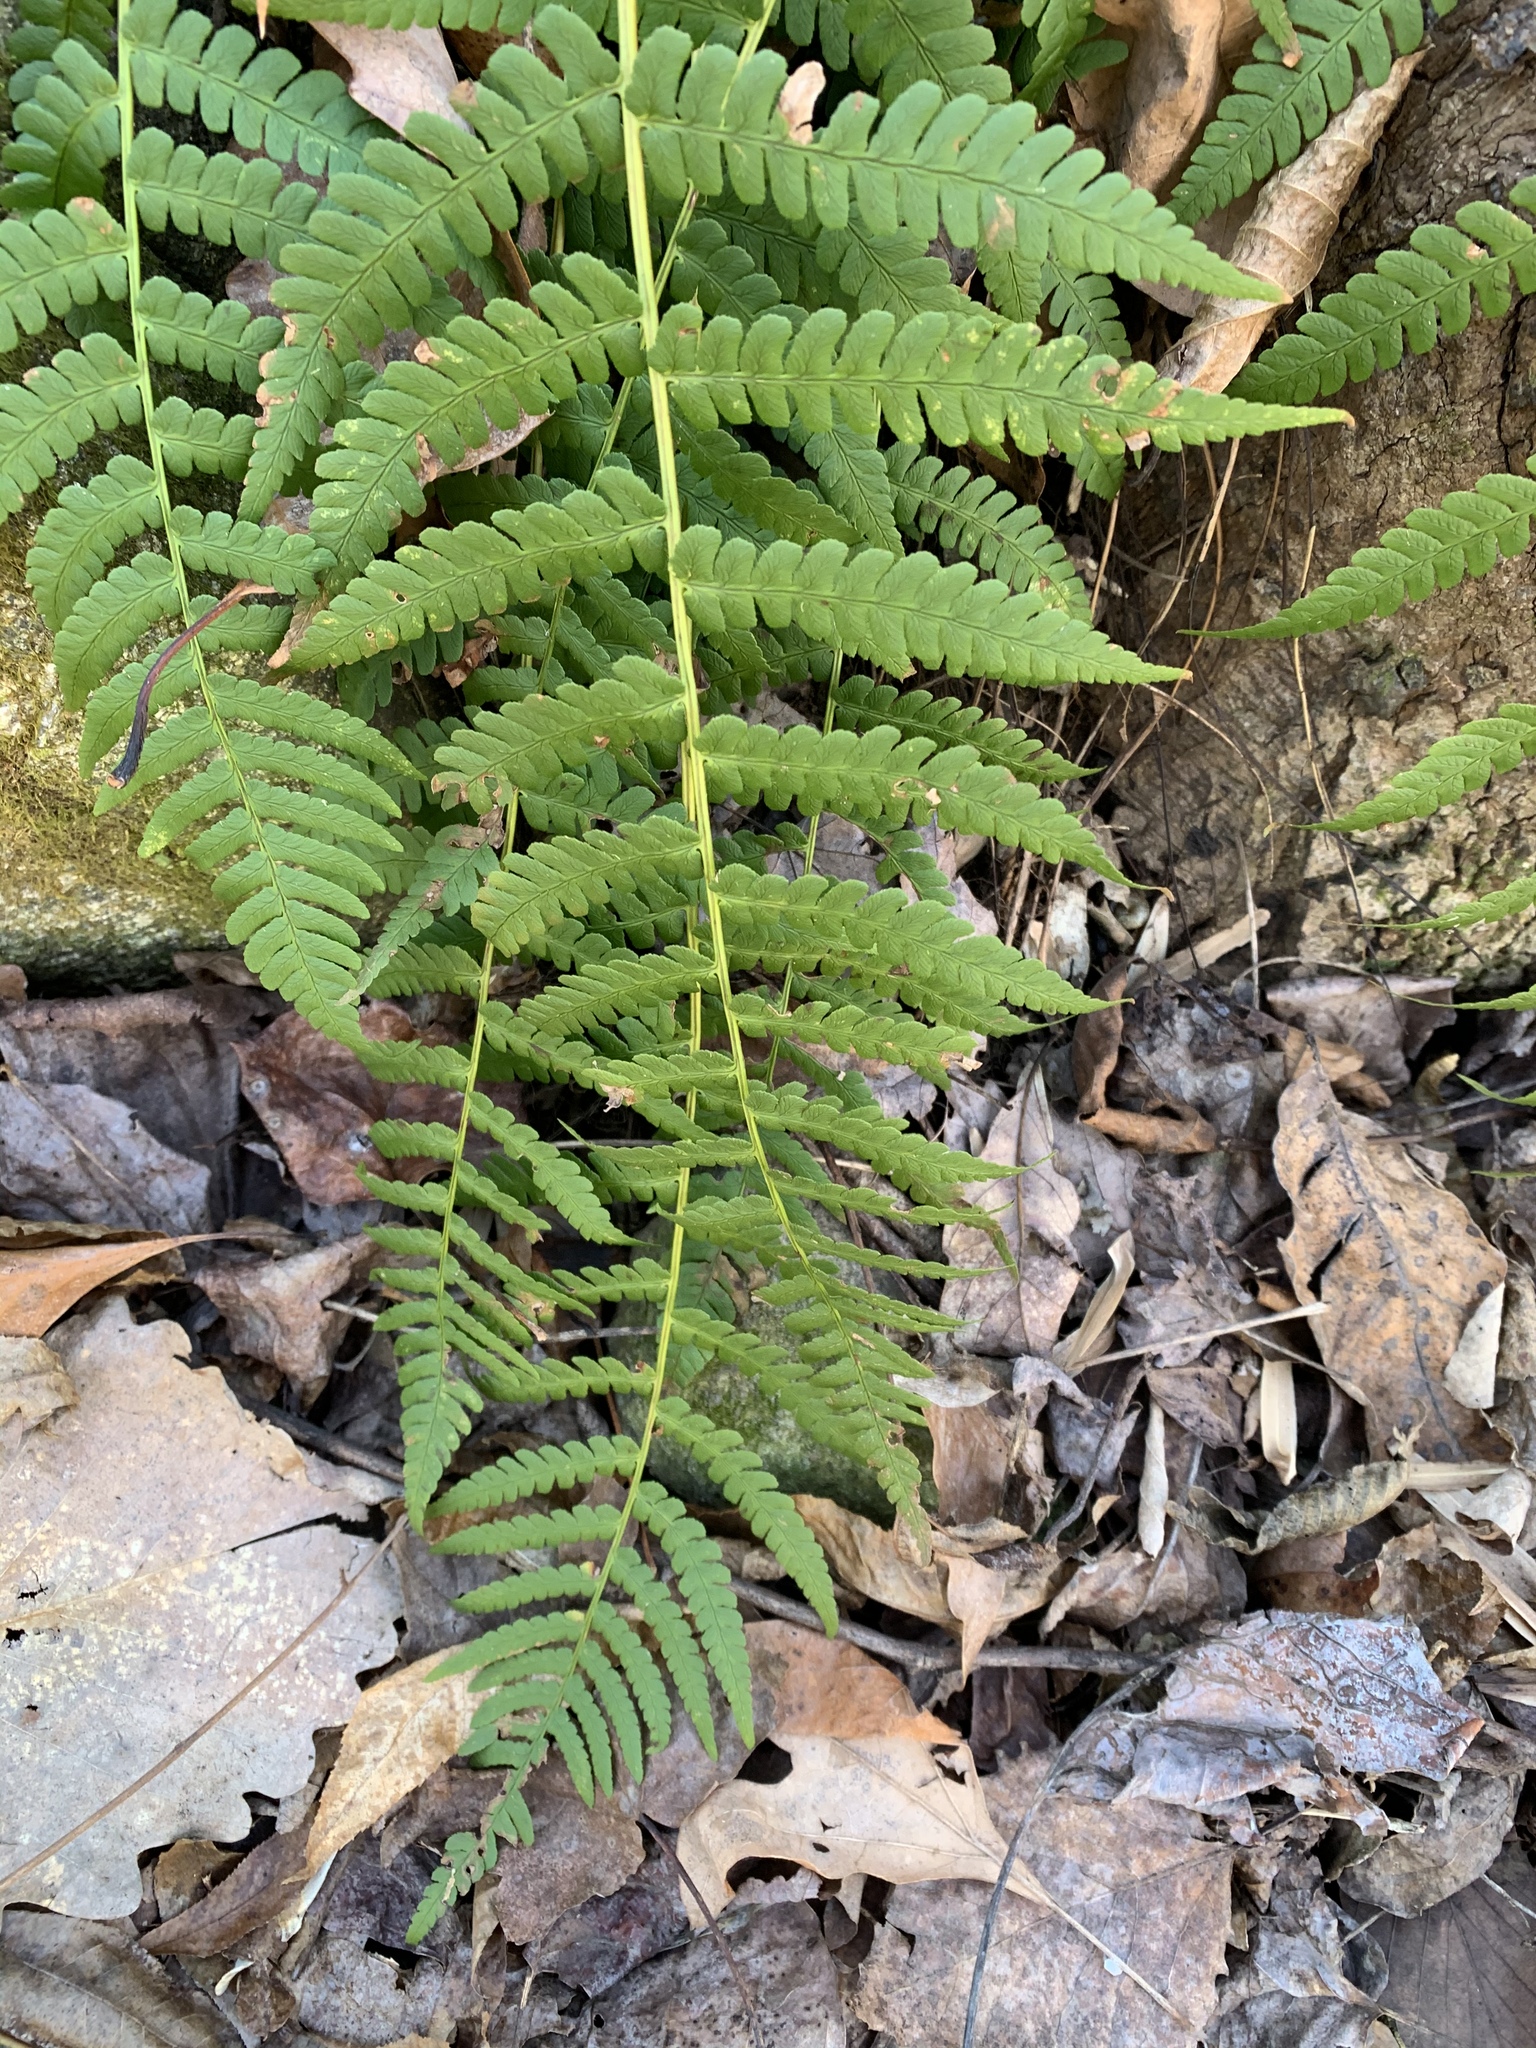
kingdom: Plantae
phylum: Tracheophyta
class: Polypodiopsida
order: Polypodiales
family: Dryopteridaceae
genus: Dryopteris
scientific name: Dryopteris intermedia
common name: Evergreen wood fern
